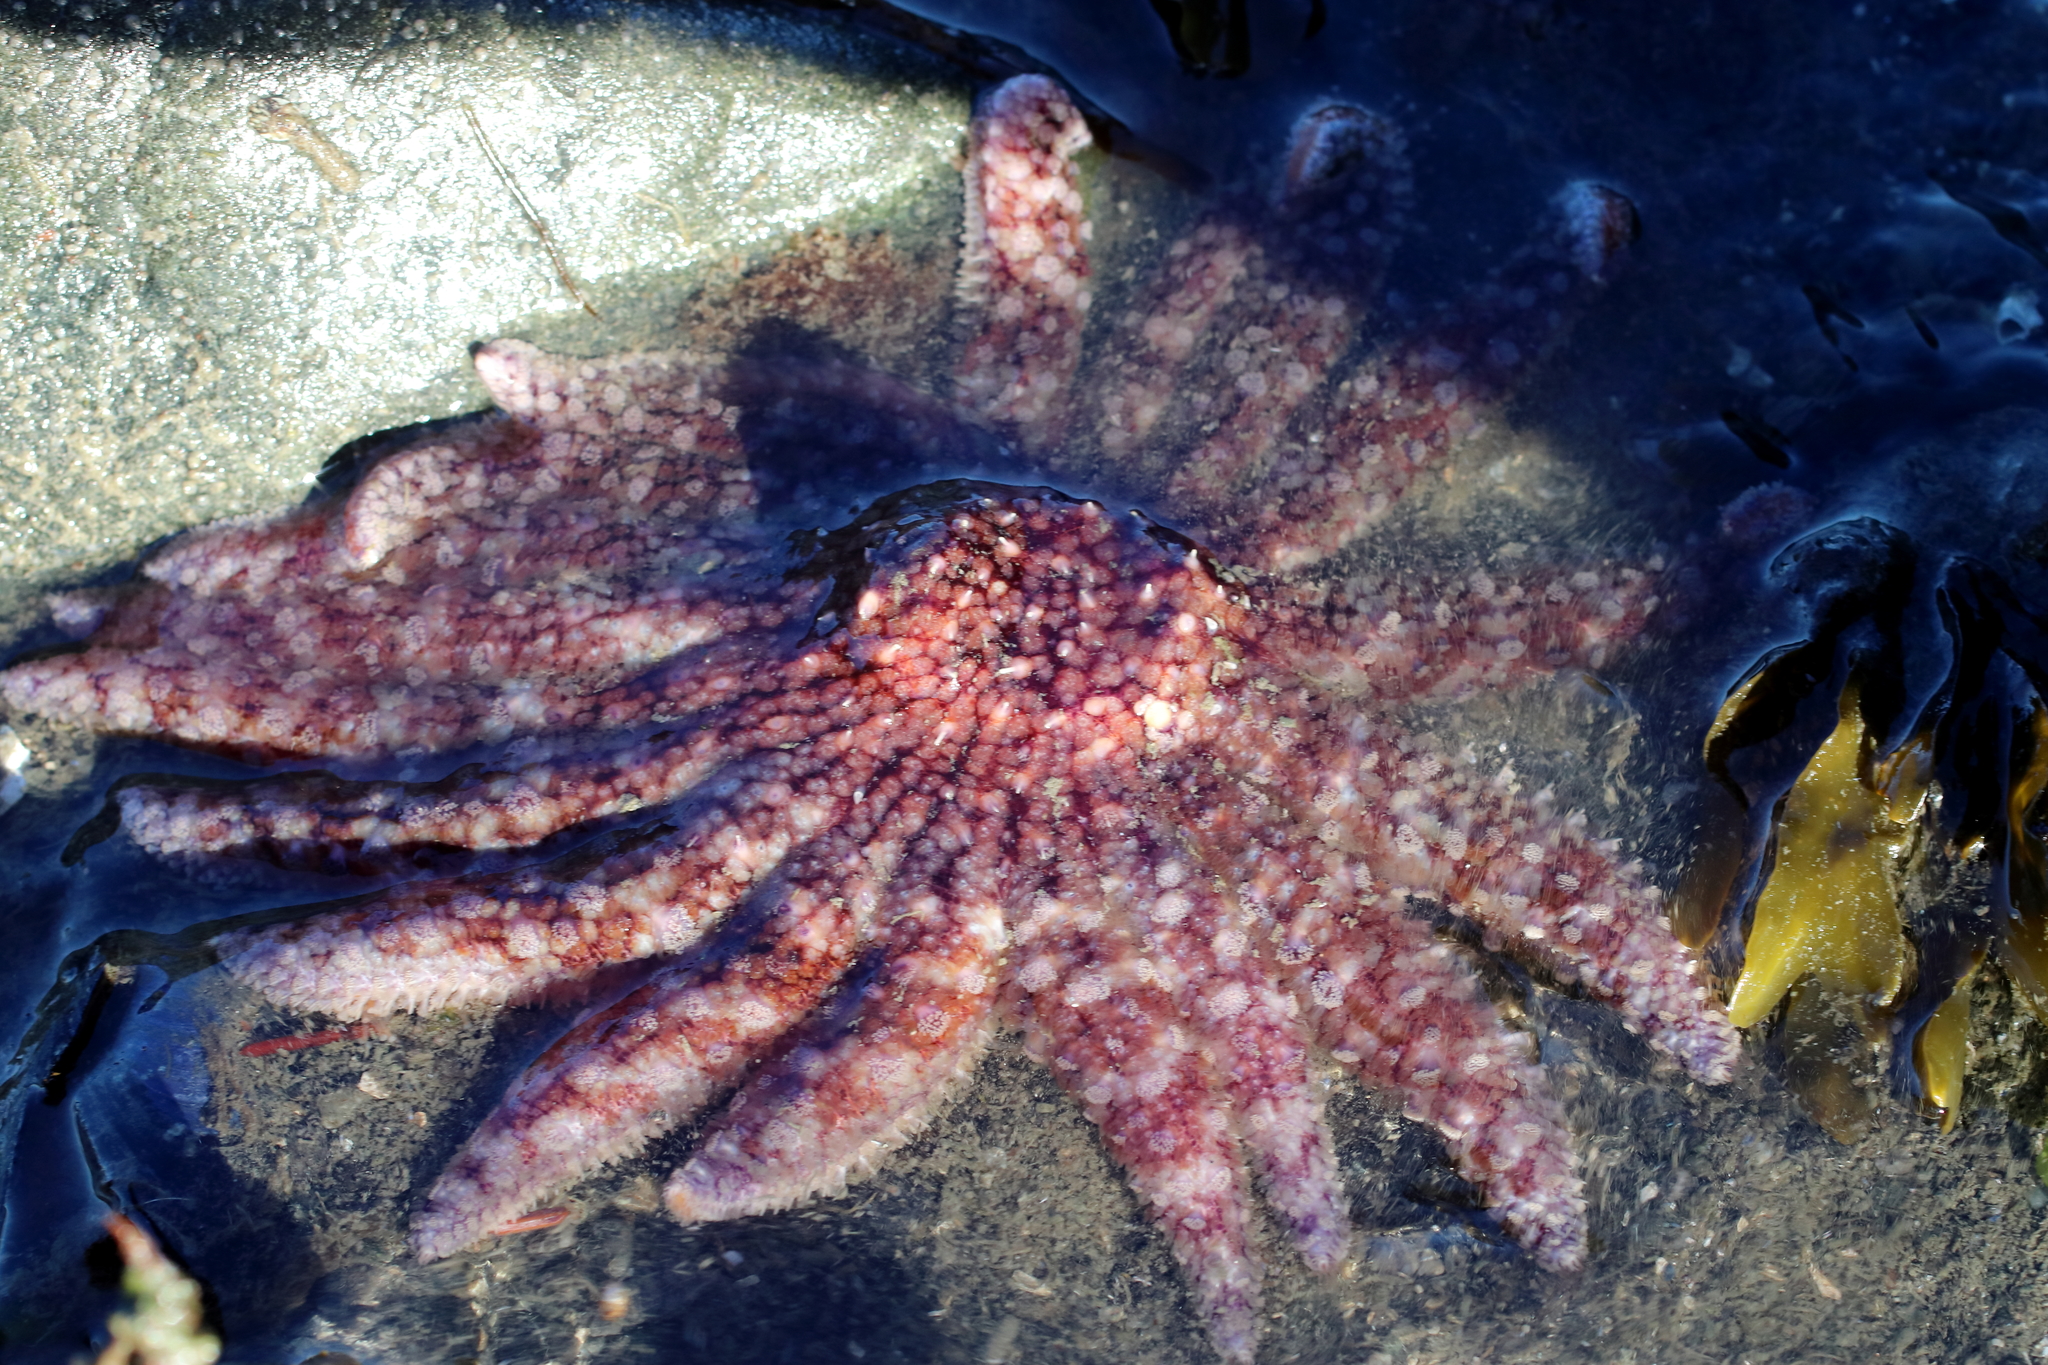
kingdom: Animalia
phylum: Echinodermata
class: Asteroidea
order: Forcipulatida
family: Asteriidae
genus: Pycnopodia
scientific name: Pycnopodia helianthoides
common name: Rag mop
